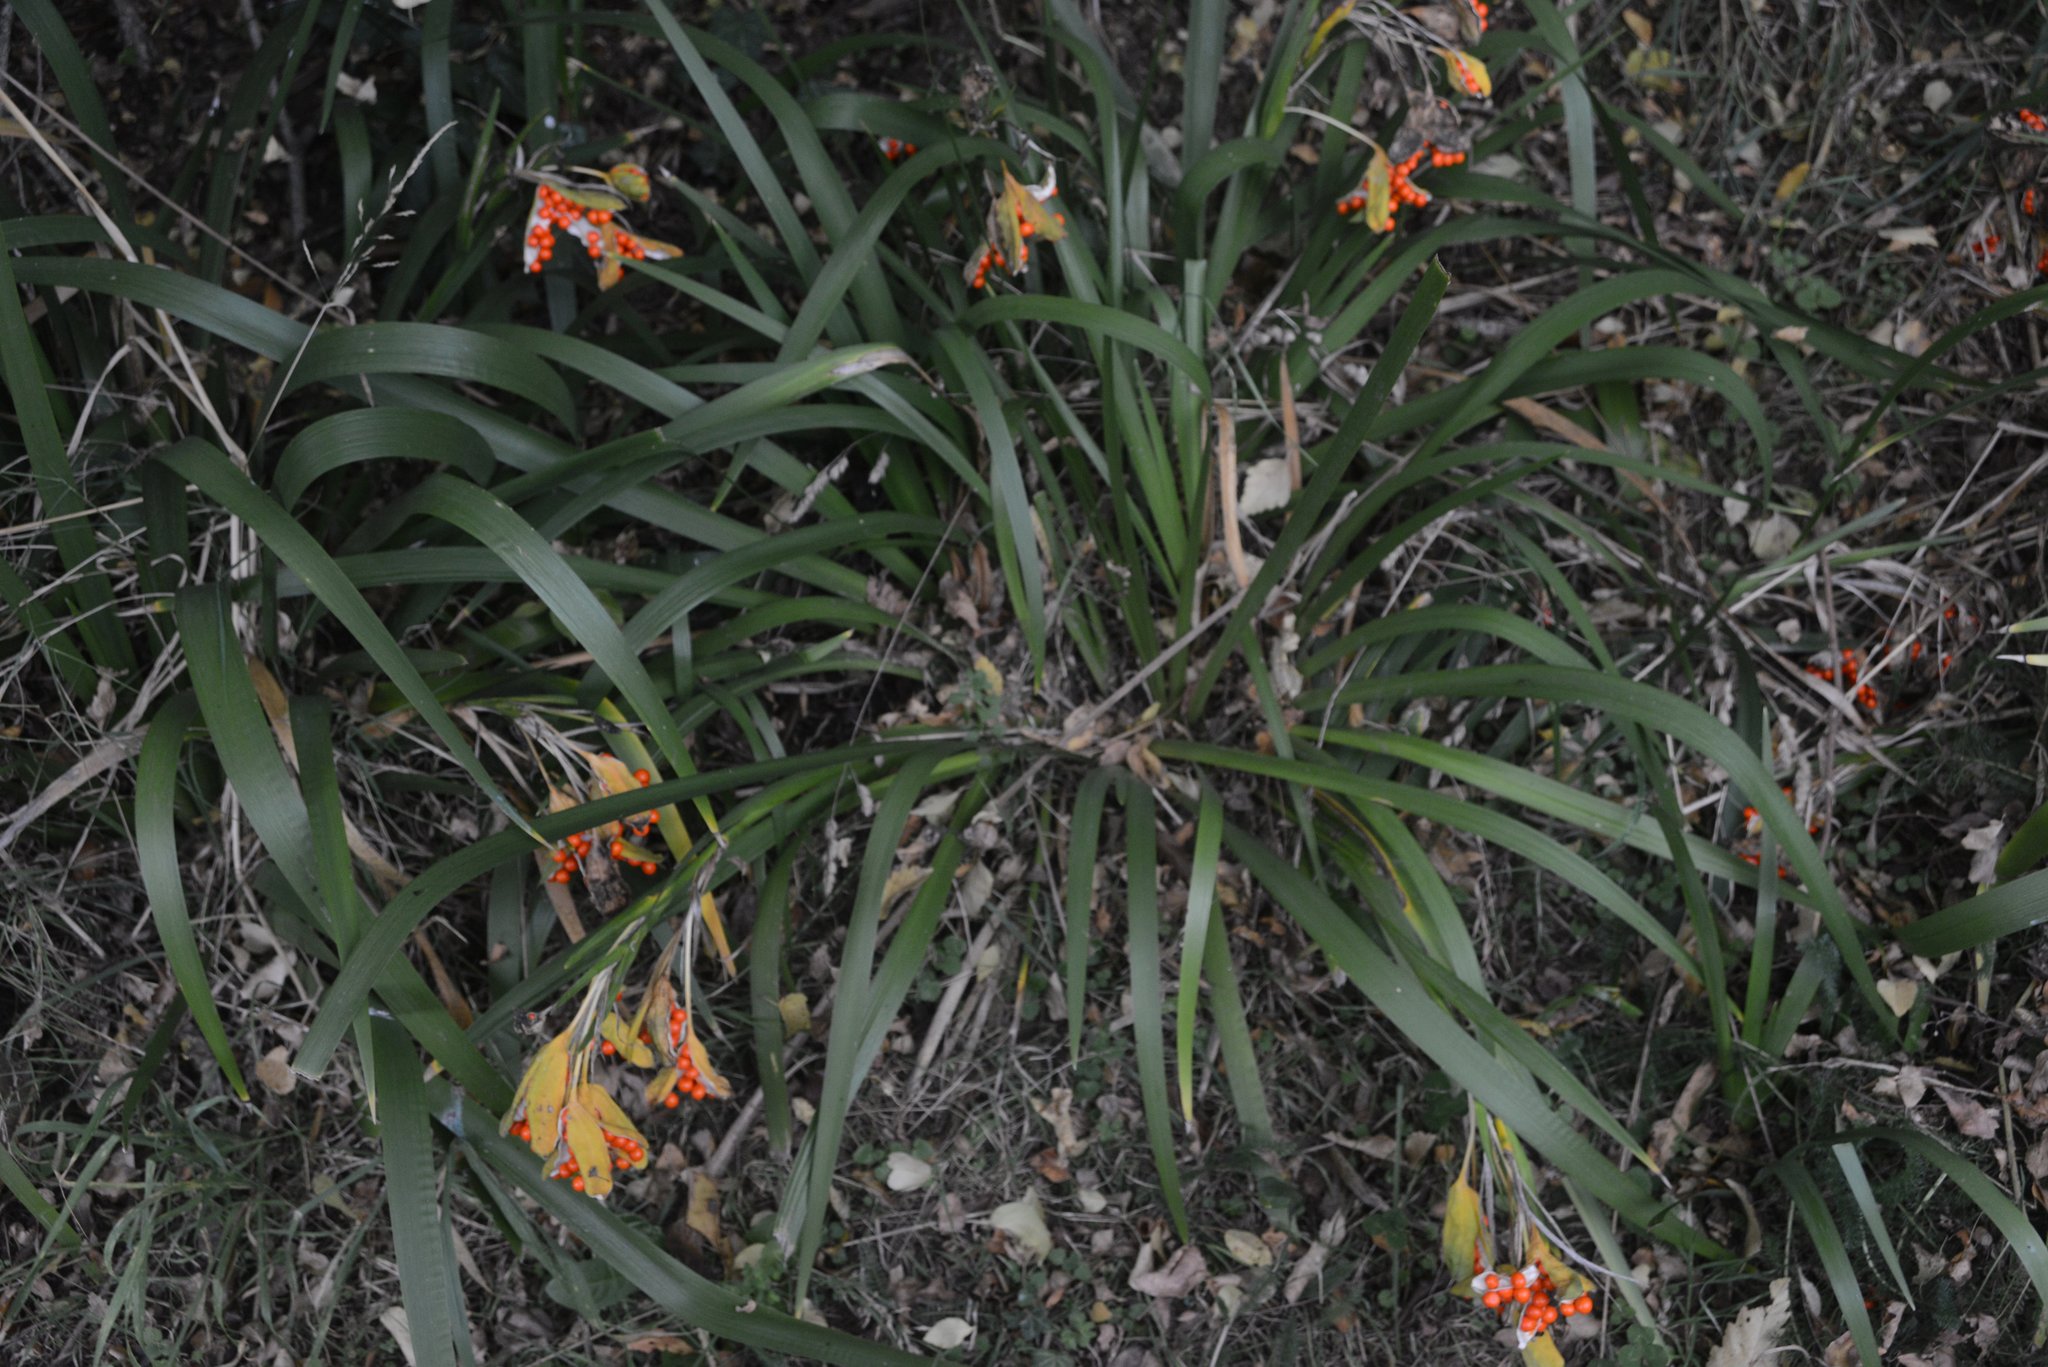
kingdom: Plantae
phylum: Tracheophyta
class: Liliopsida
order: Asparagales
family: Iridaceae
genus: Iris
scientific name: Iris foetidissima
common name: Stinking iris
